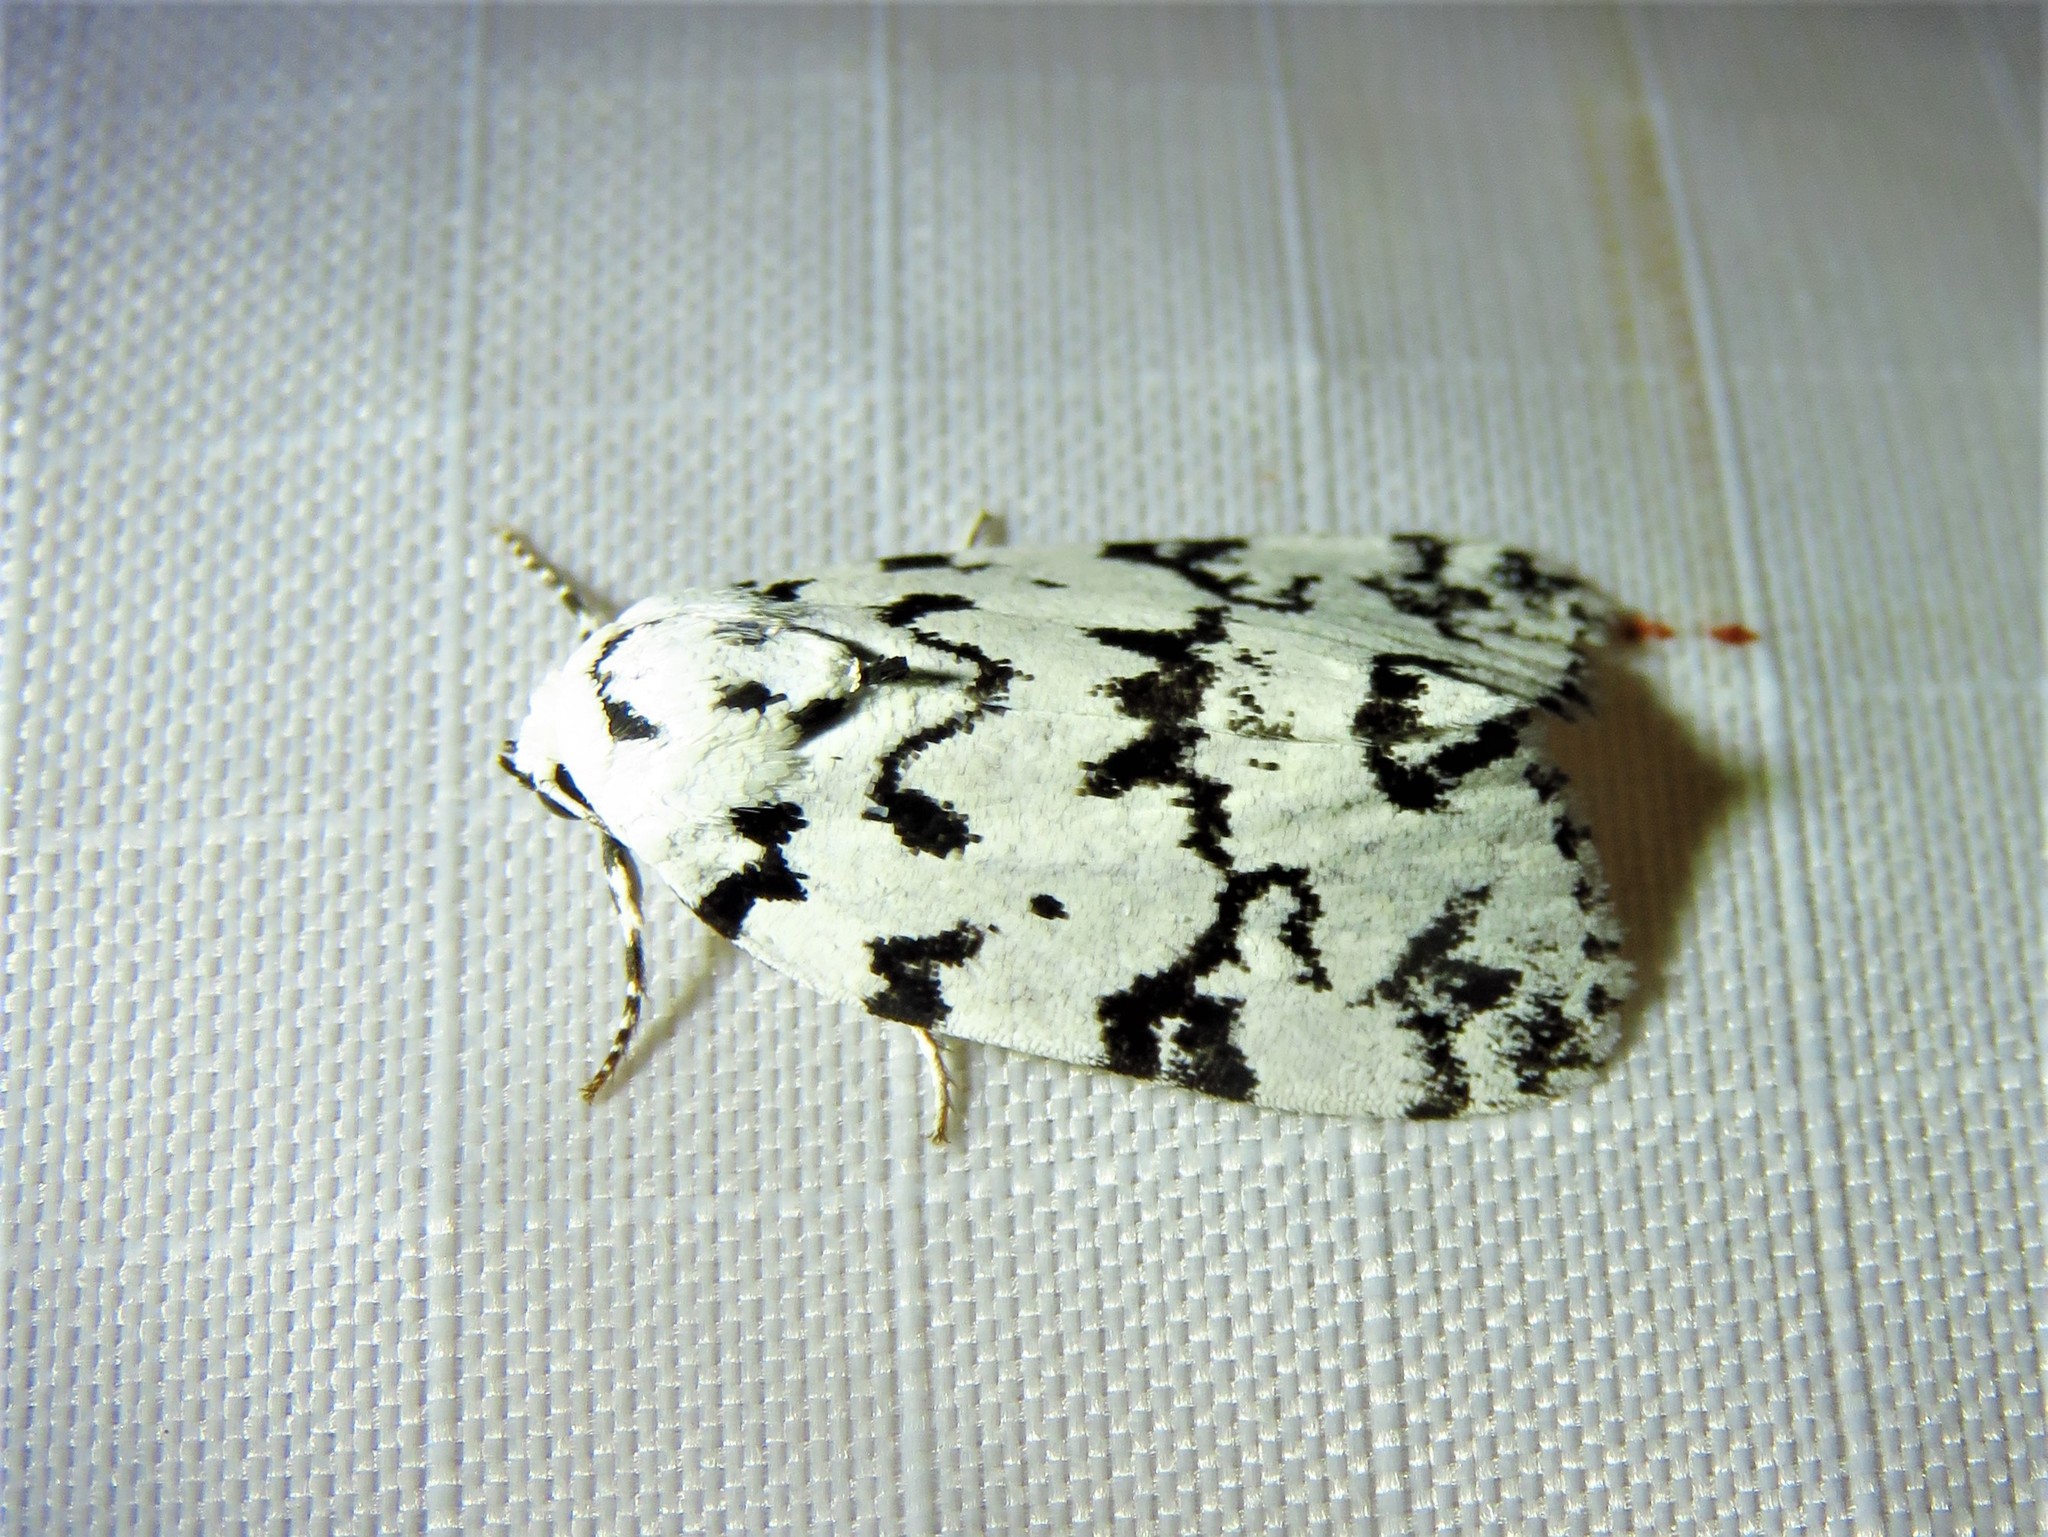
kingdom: Animalia
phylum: Arthropoda
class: Insecta
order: Lepidoptera
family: Noctuidae
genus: Polygrammate
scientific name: Polygrammate hebraeicum
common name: Hebrew moth
